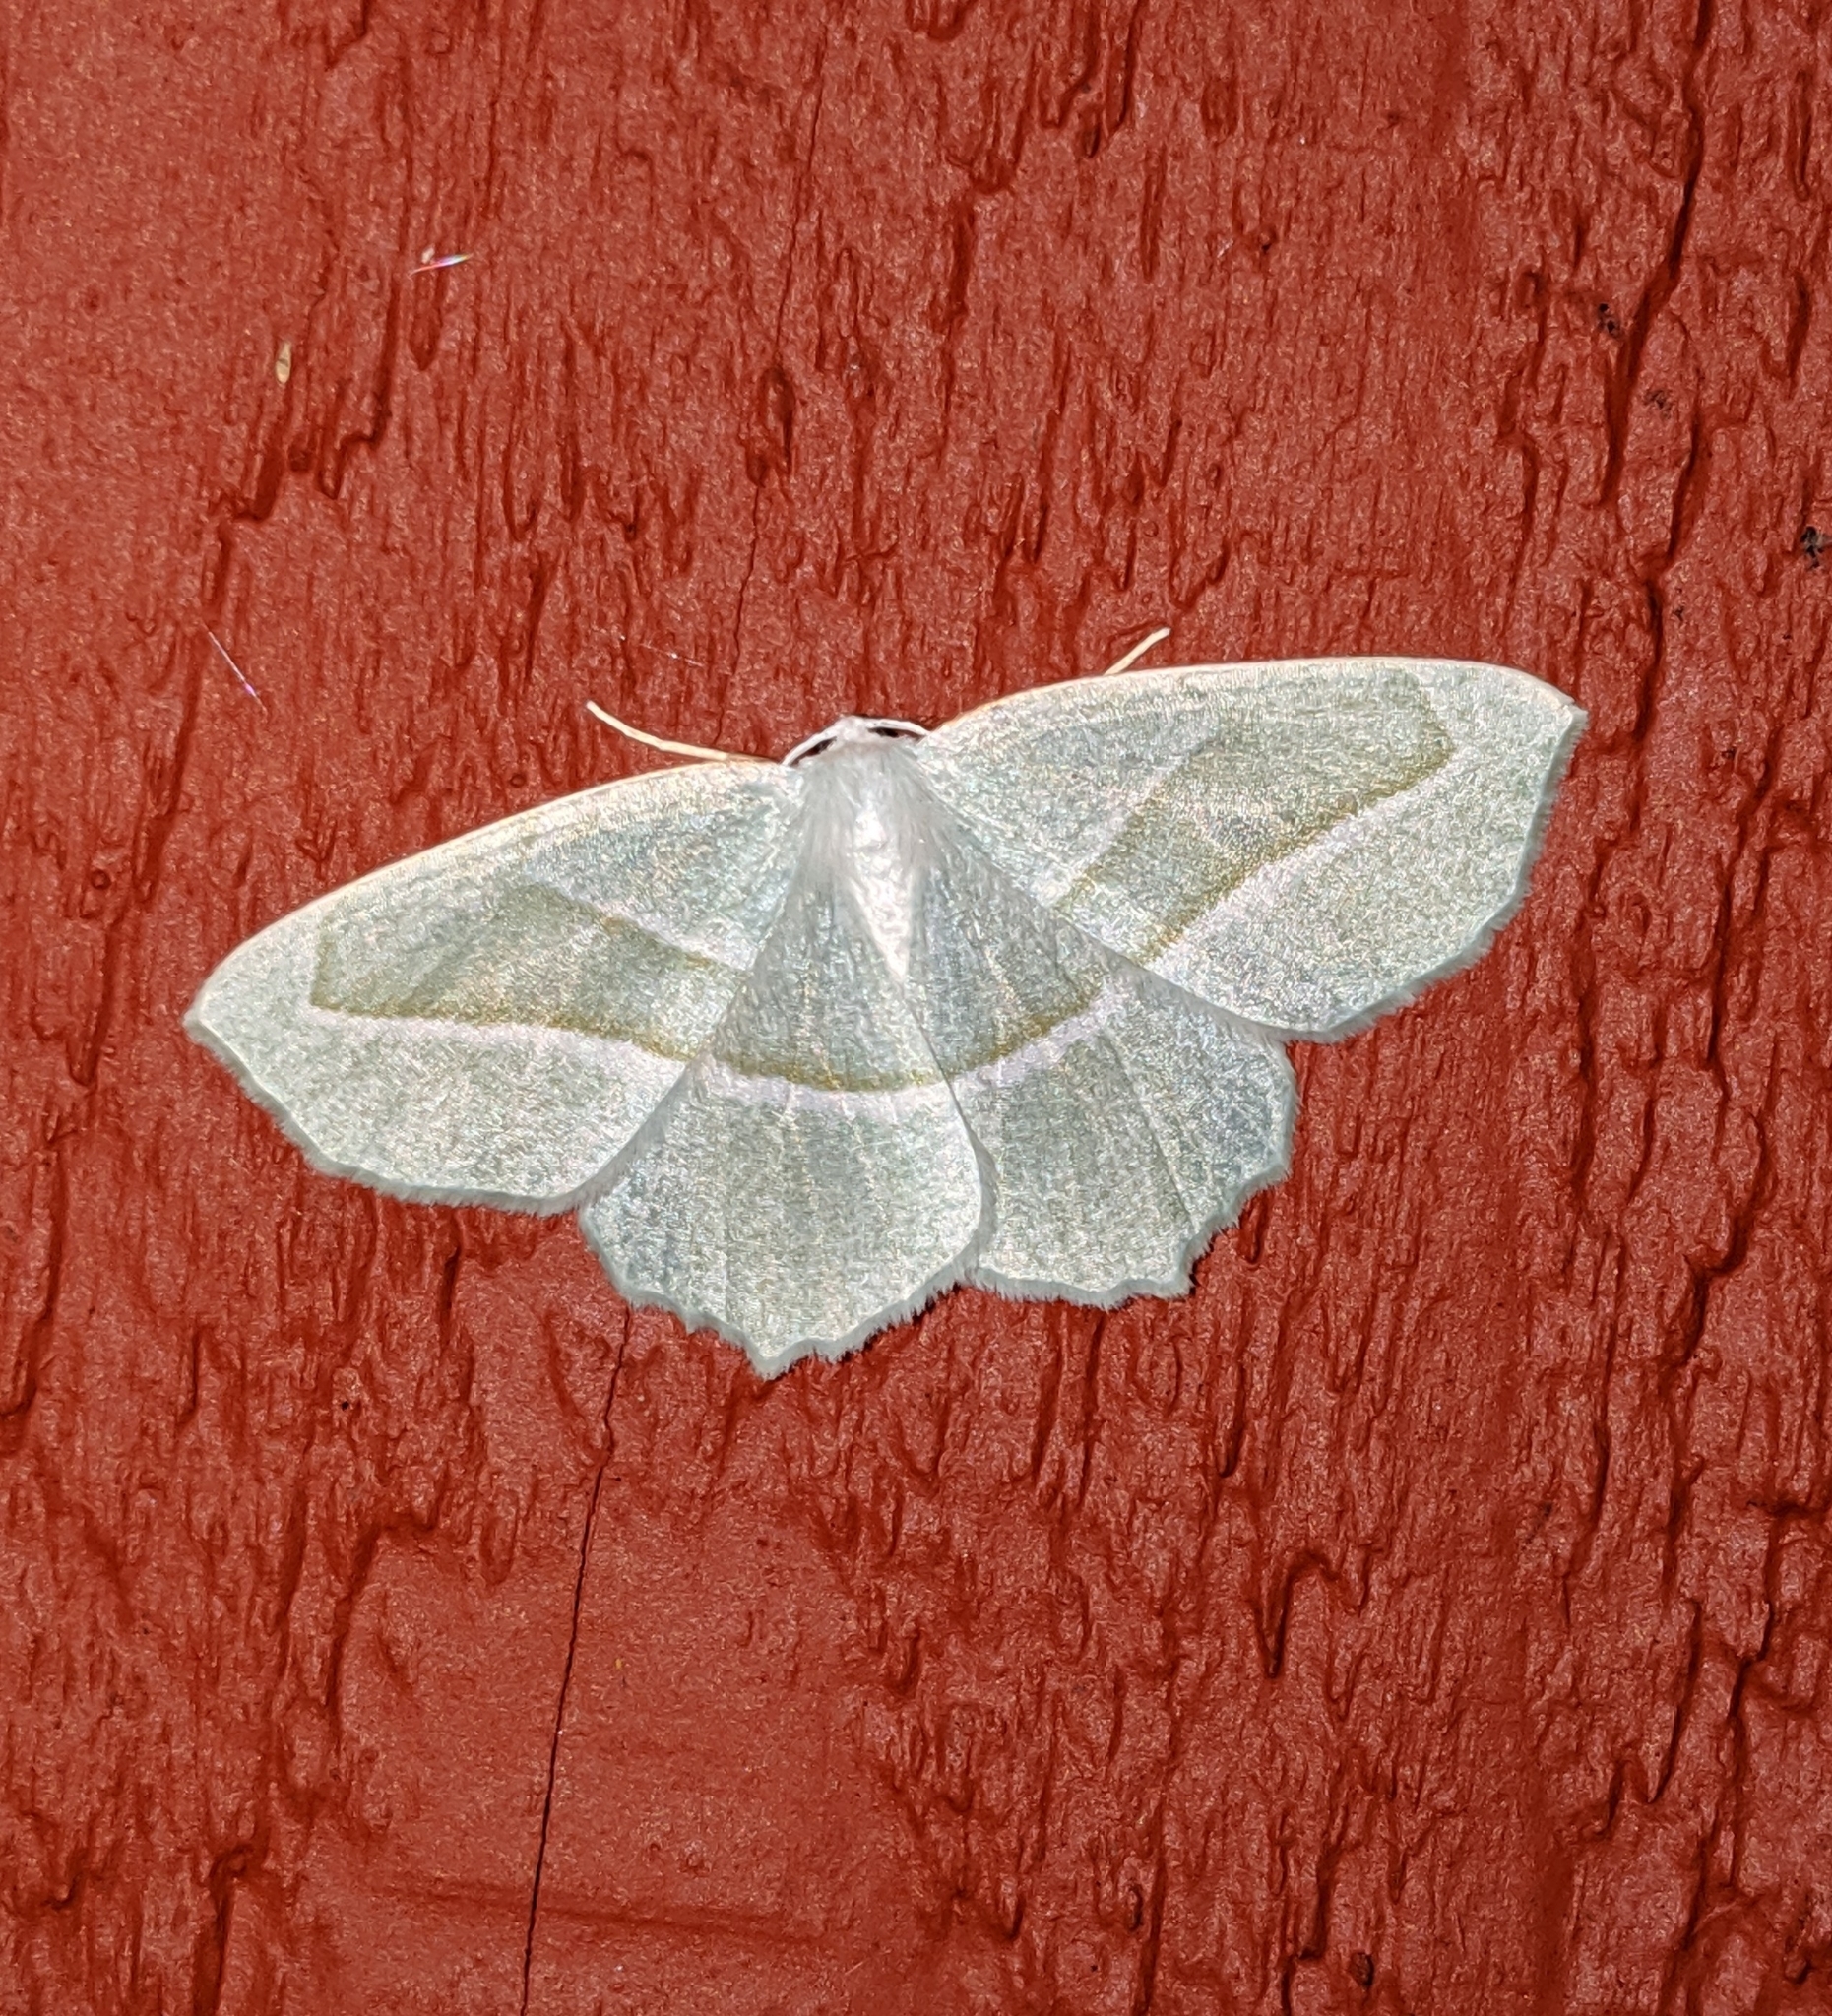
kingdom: Animalia
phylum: Arthropoda
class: Insecta
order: Lepidoptera
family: Geometridae
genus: Campaea
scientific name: Campaea perlata
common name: Fringed looper
